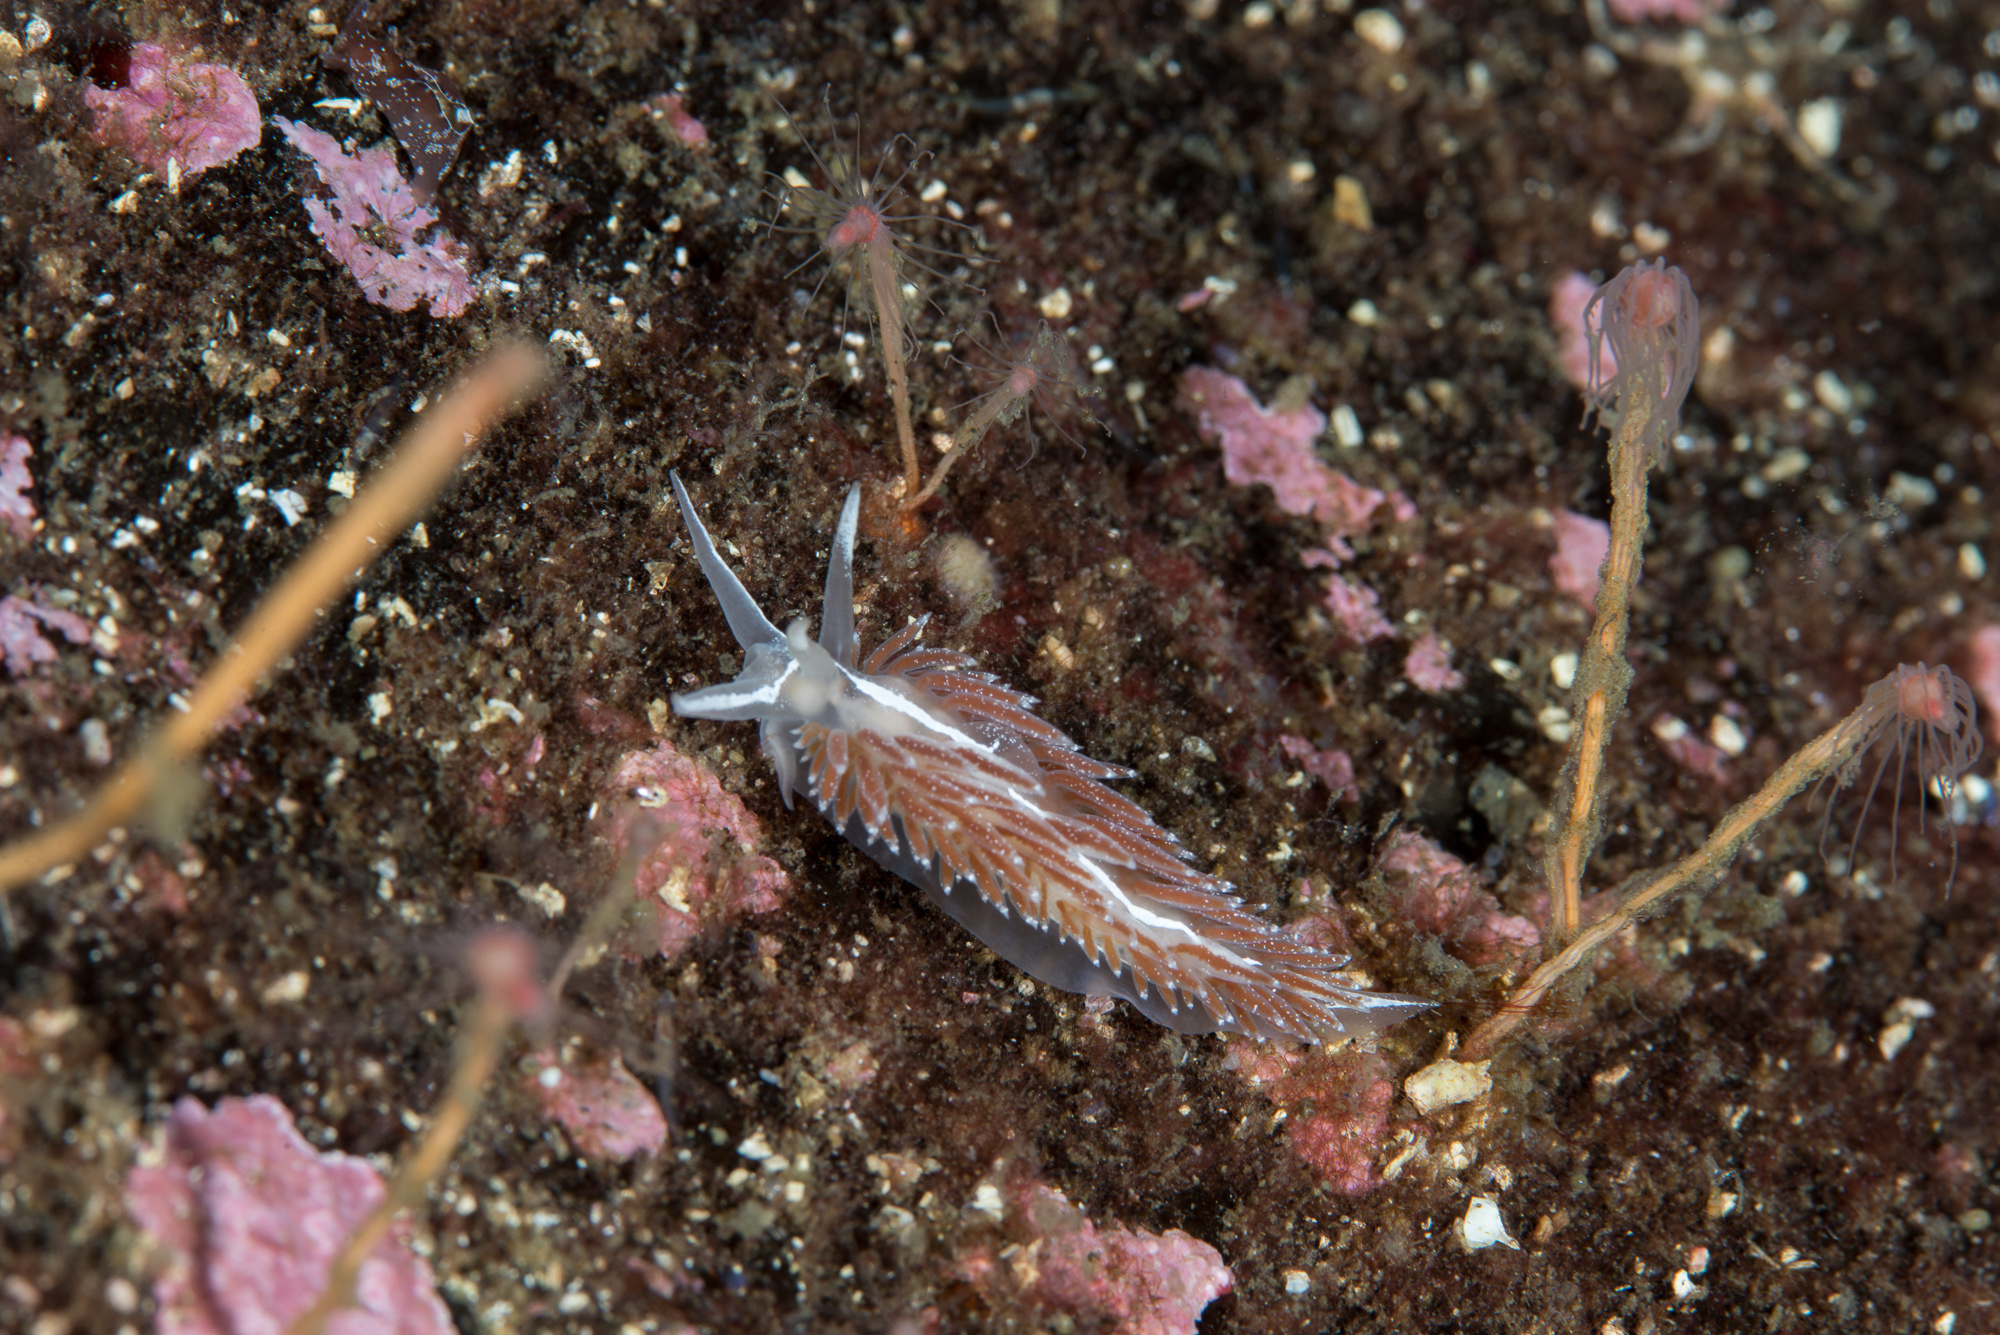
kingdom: Animalia
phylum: Mollusca
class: Gastropoda
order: Nudibranchia
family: Coryphellidae
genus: Coryphella
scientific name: Coryphella monicae
